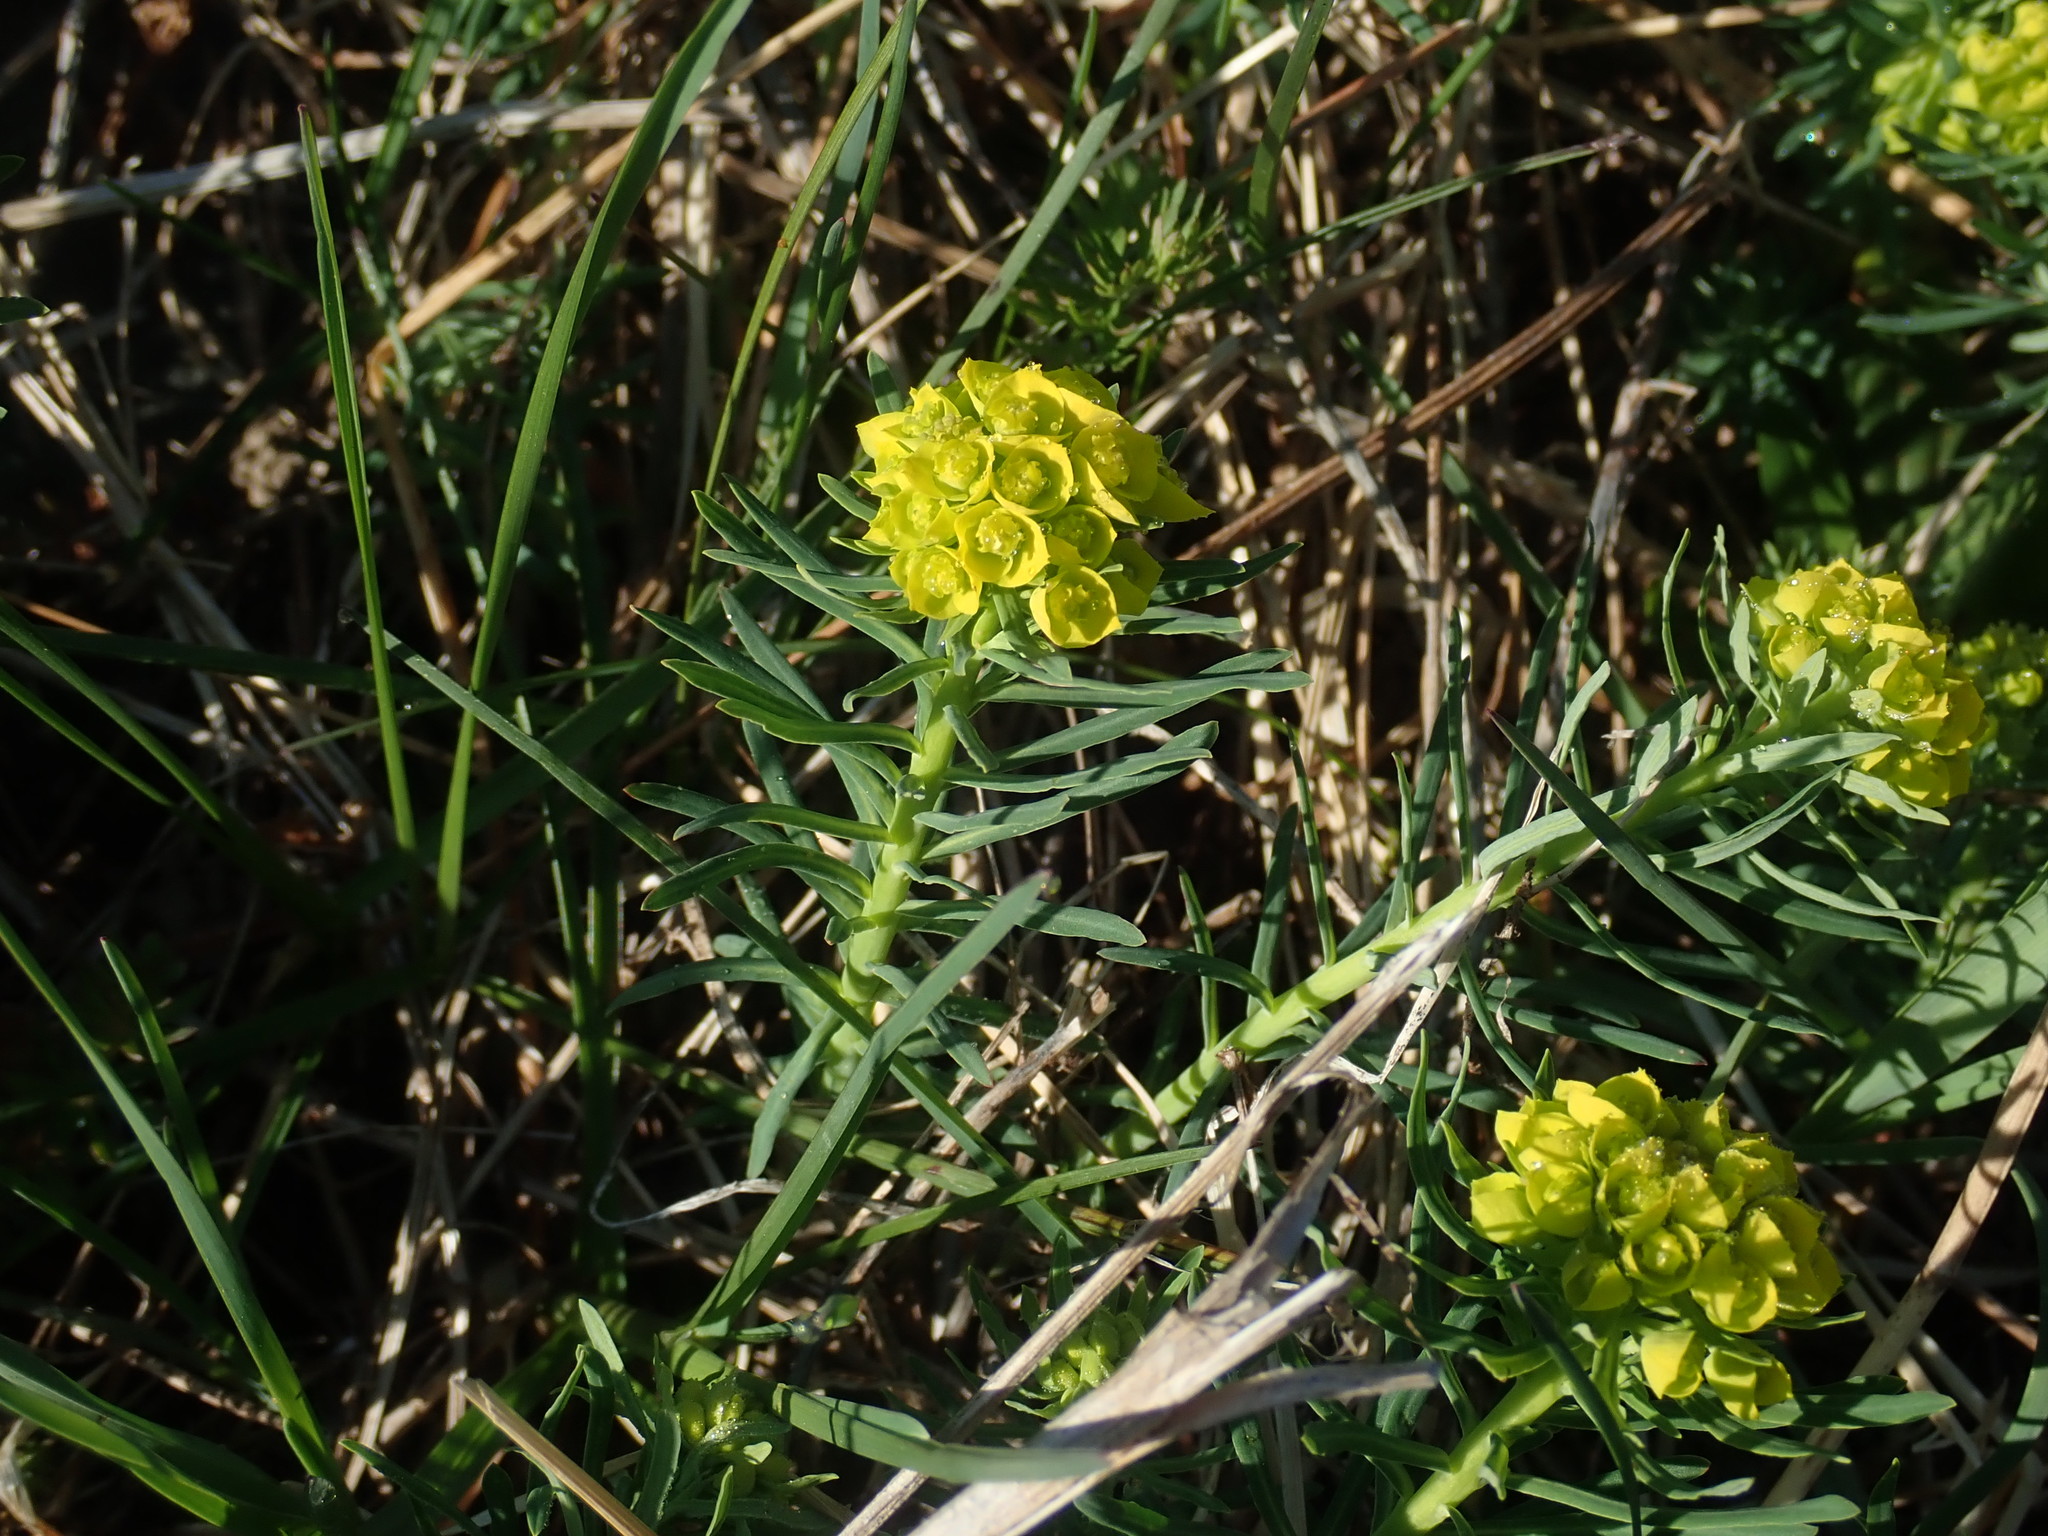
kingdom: Plantae
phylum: Tracheophyta
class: Magnoliopsida
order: Malpighiales
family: Euphorbiaceae
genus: Euphorbia
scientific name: Euphorbia cyparissias
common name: Cypress spurge
